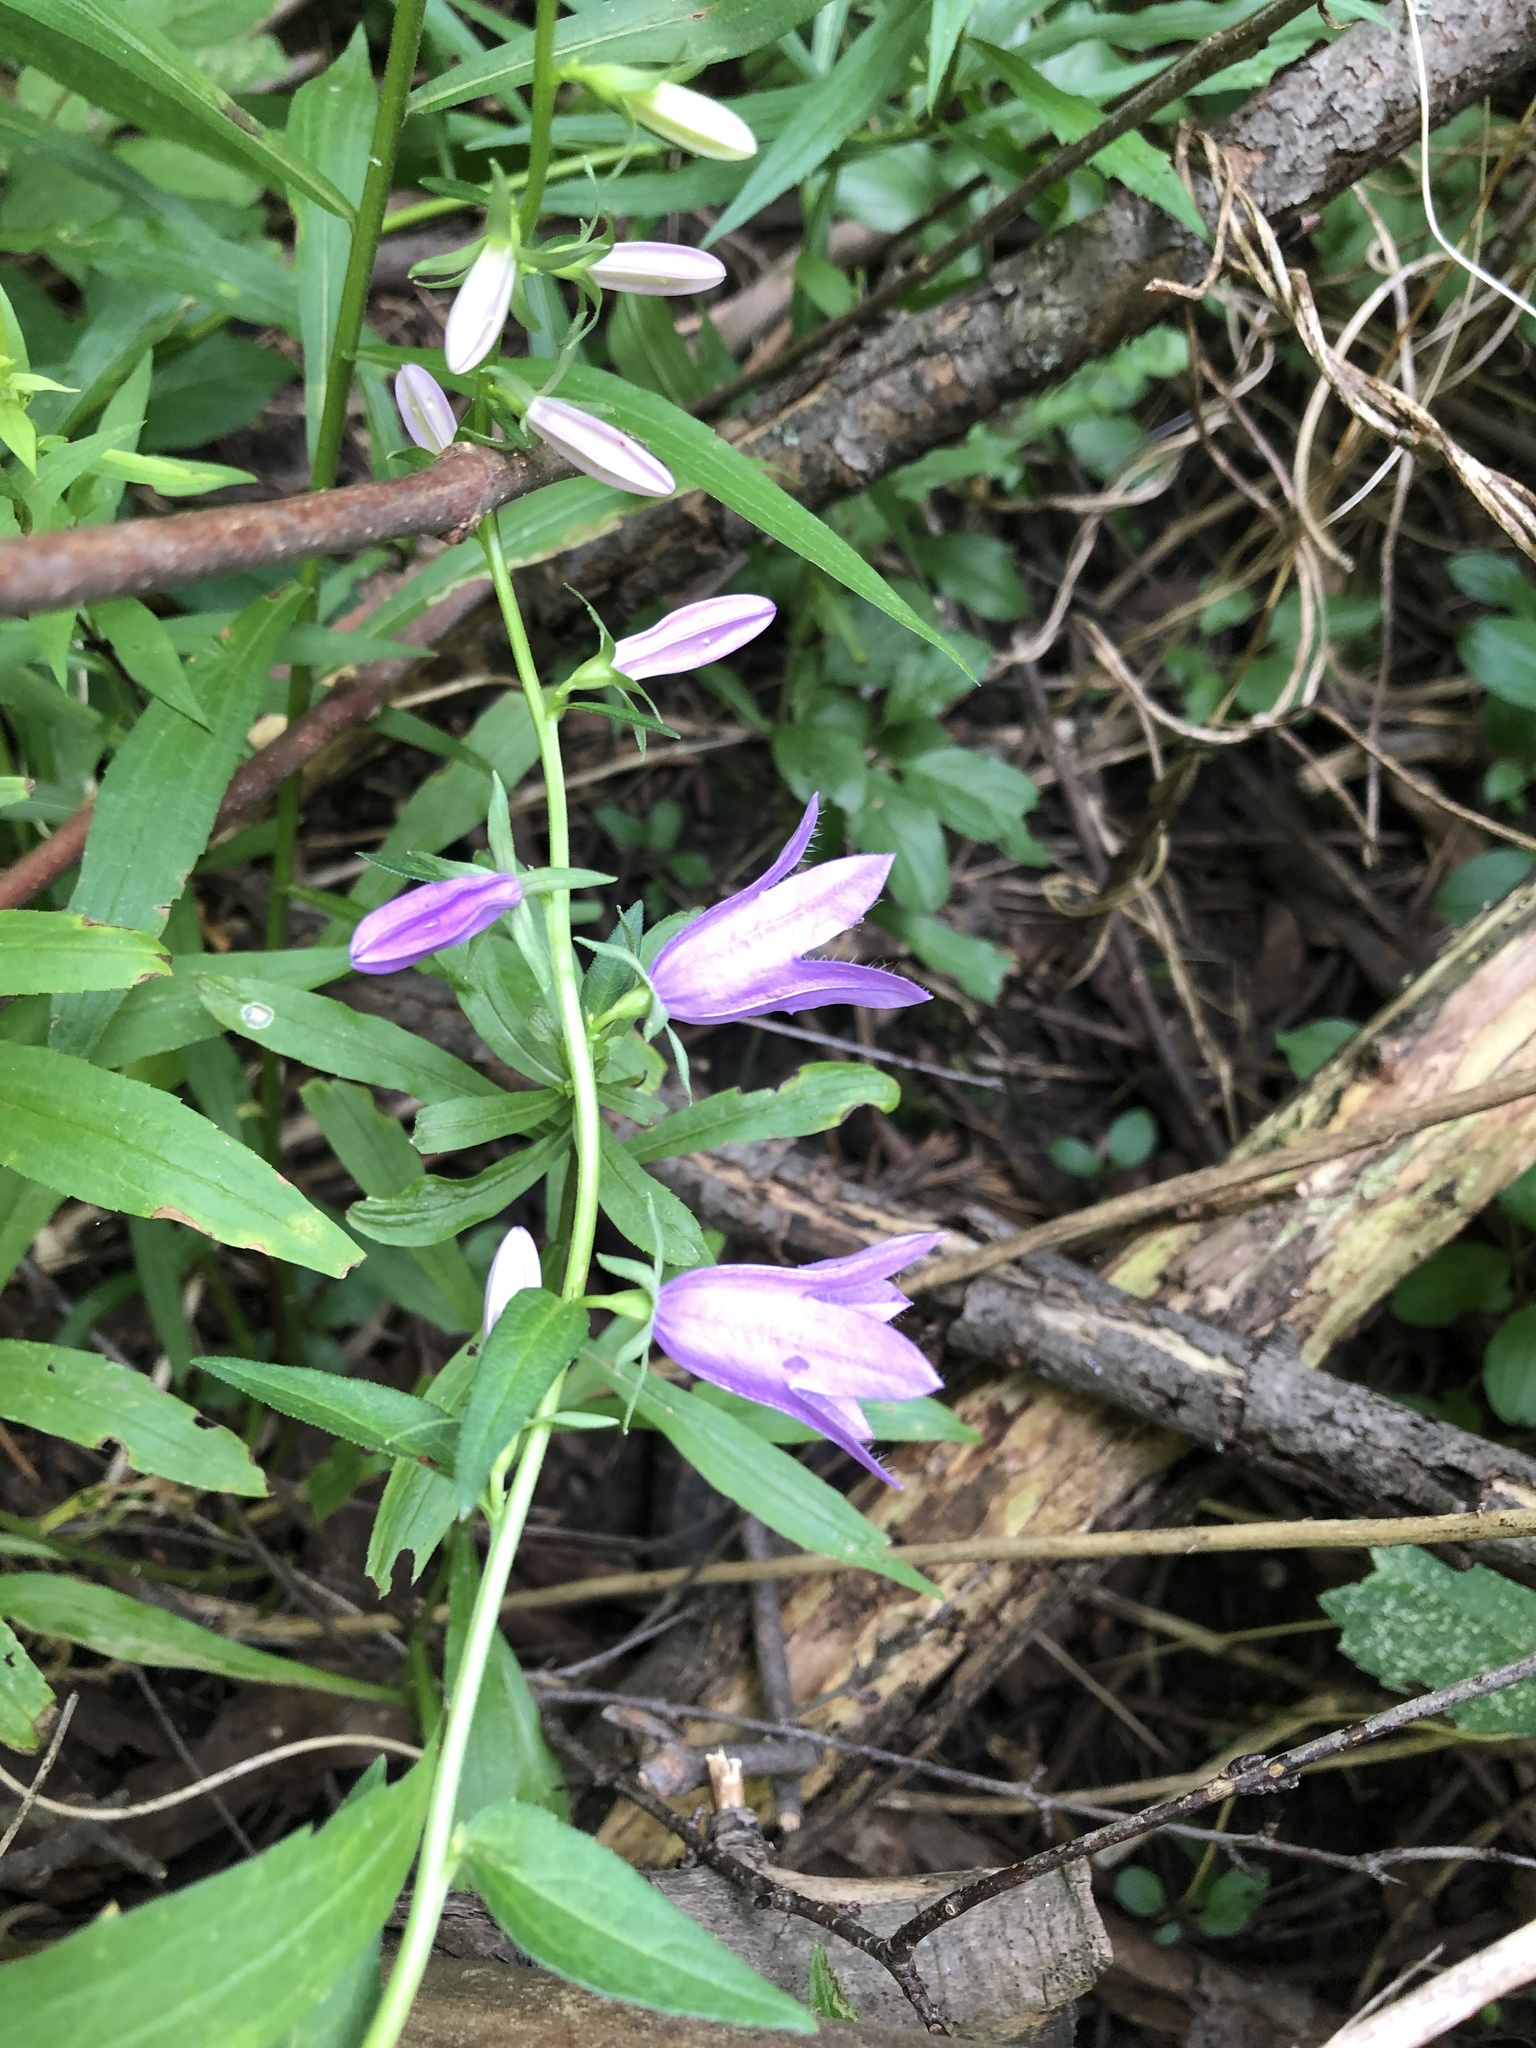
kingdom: Plantae
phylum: Tracheophyta
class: Magnoliopsida
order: Asterales
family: Campanulaceae
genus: Campanula
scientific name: Campanula rapunculoides
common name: Creeping bellflower
